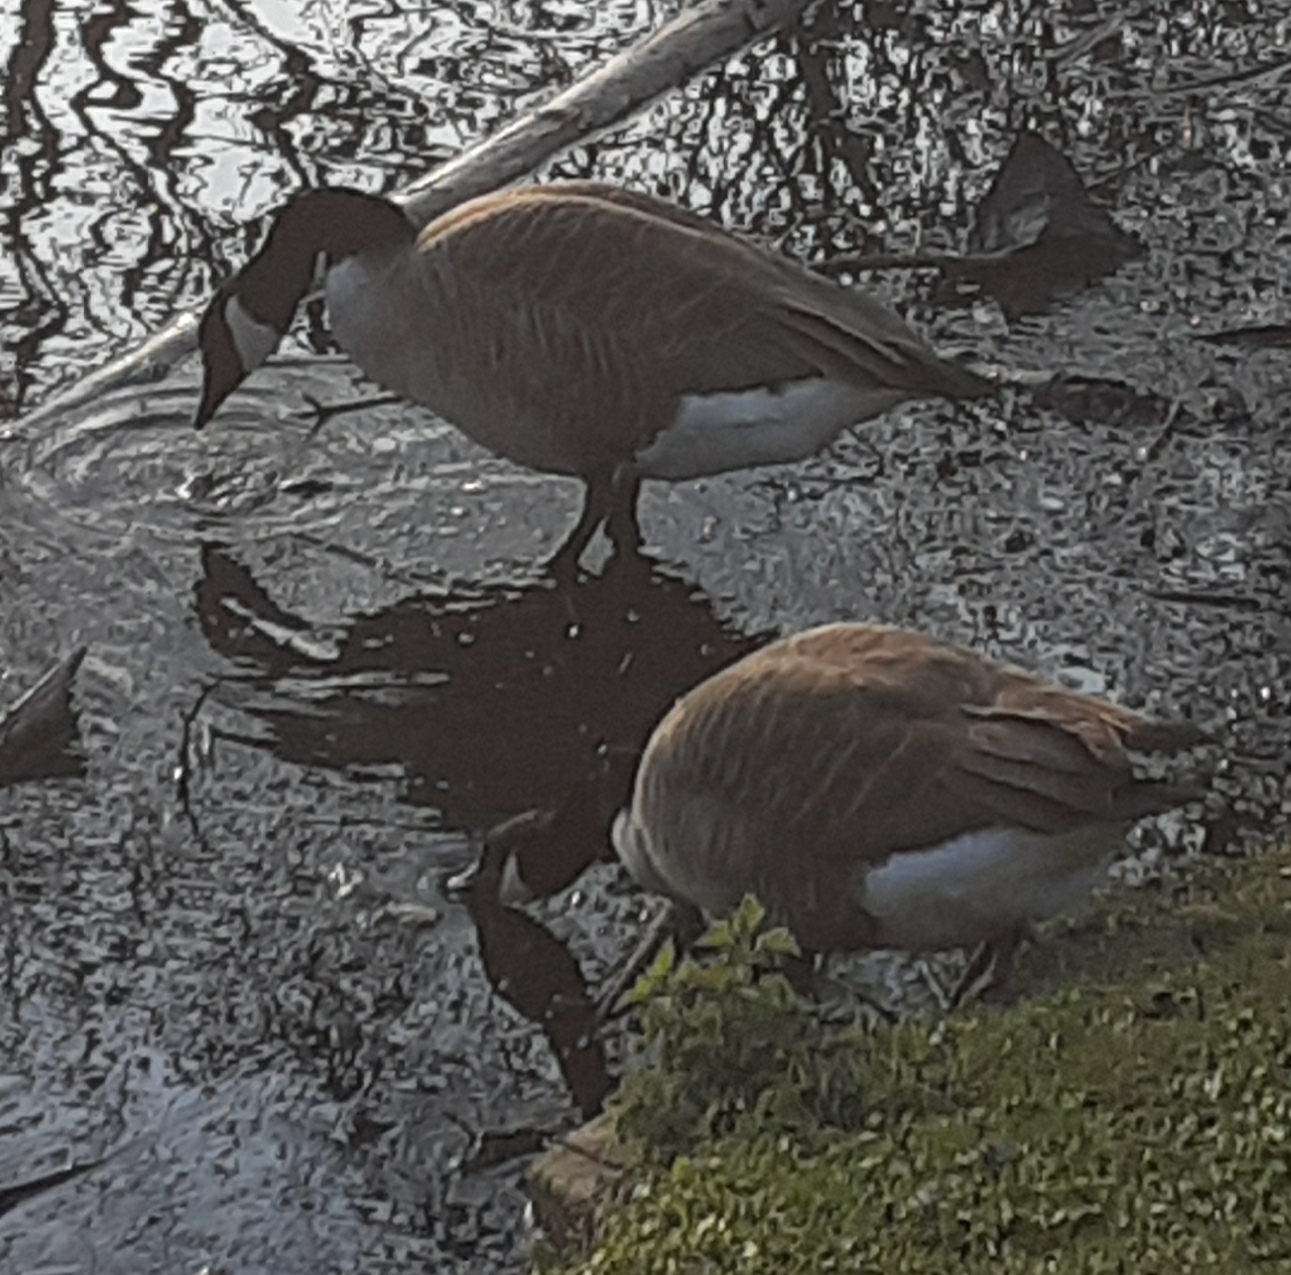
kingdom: Animalia
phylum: Chordata
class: Aves
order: Anseriformes
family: Anatidae
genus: Branta
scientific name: Branta canadensis
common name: Canada goose
